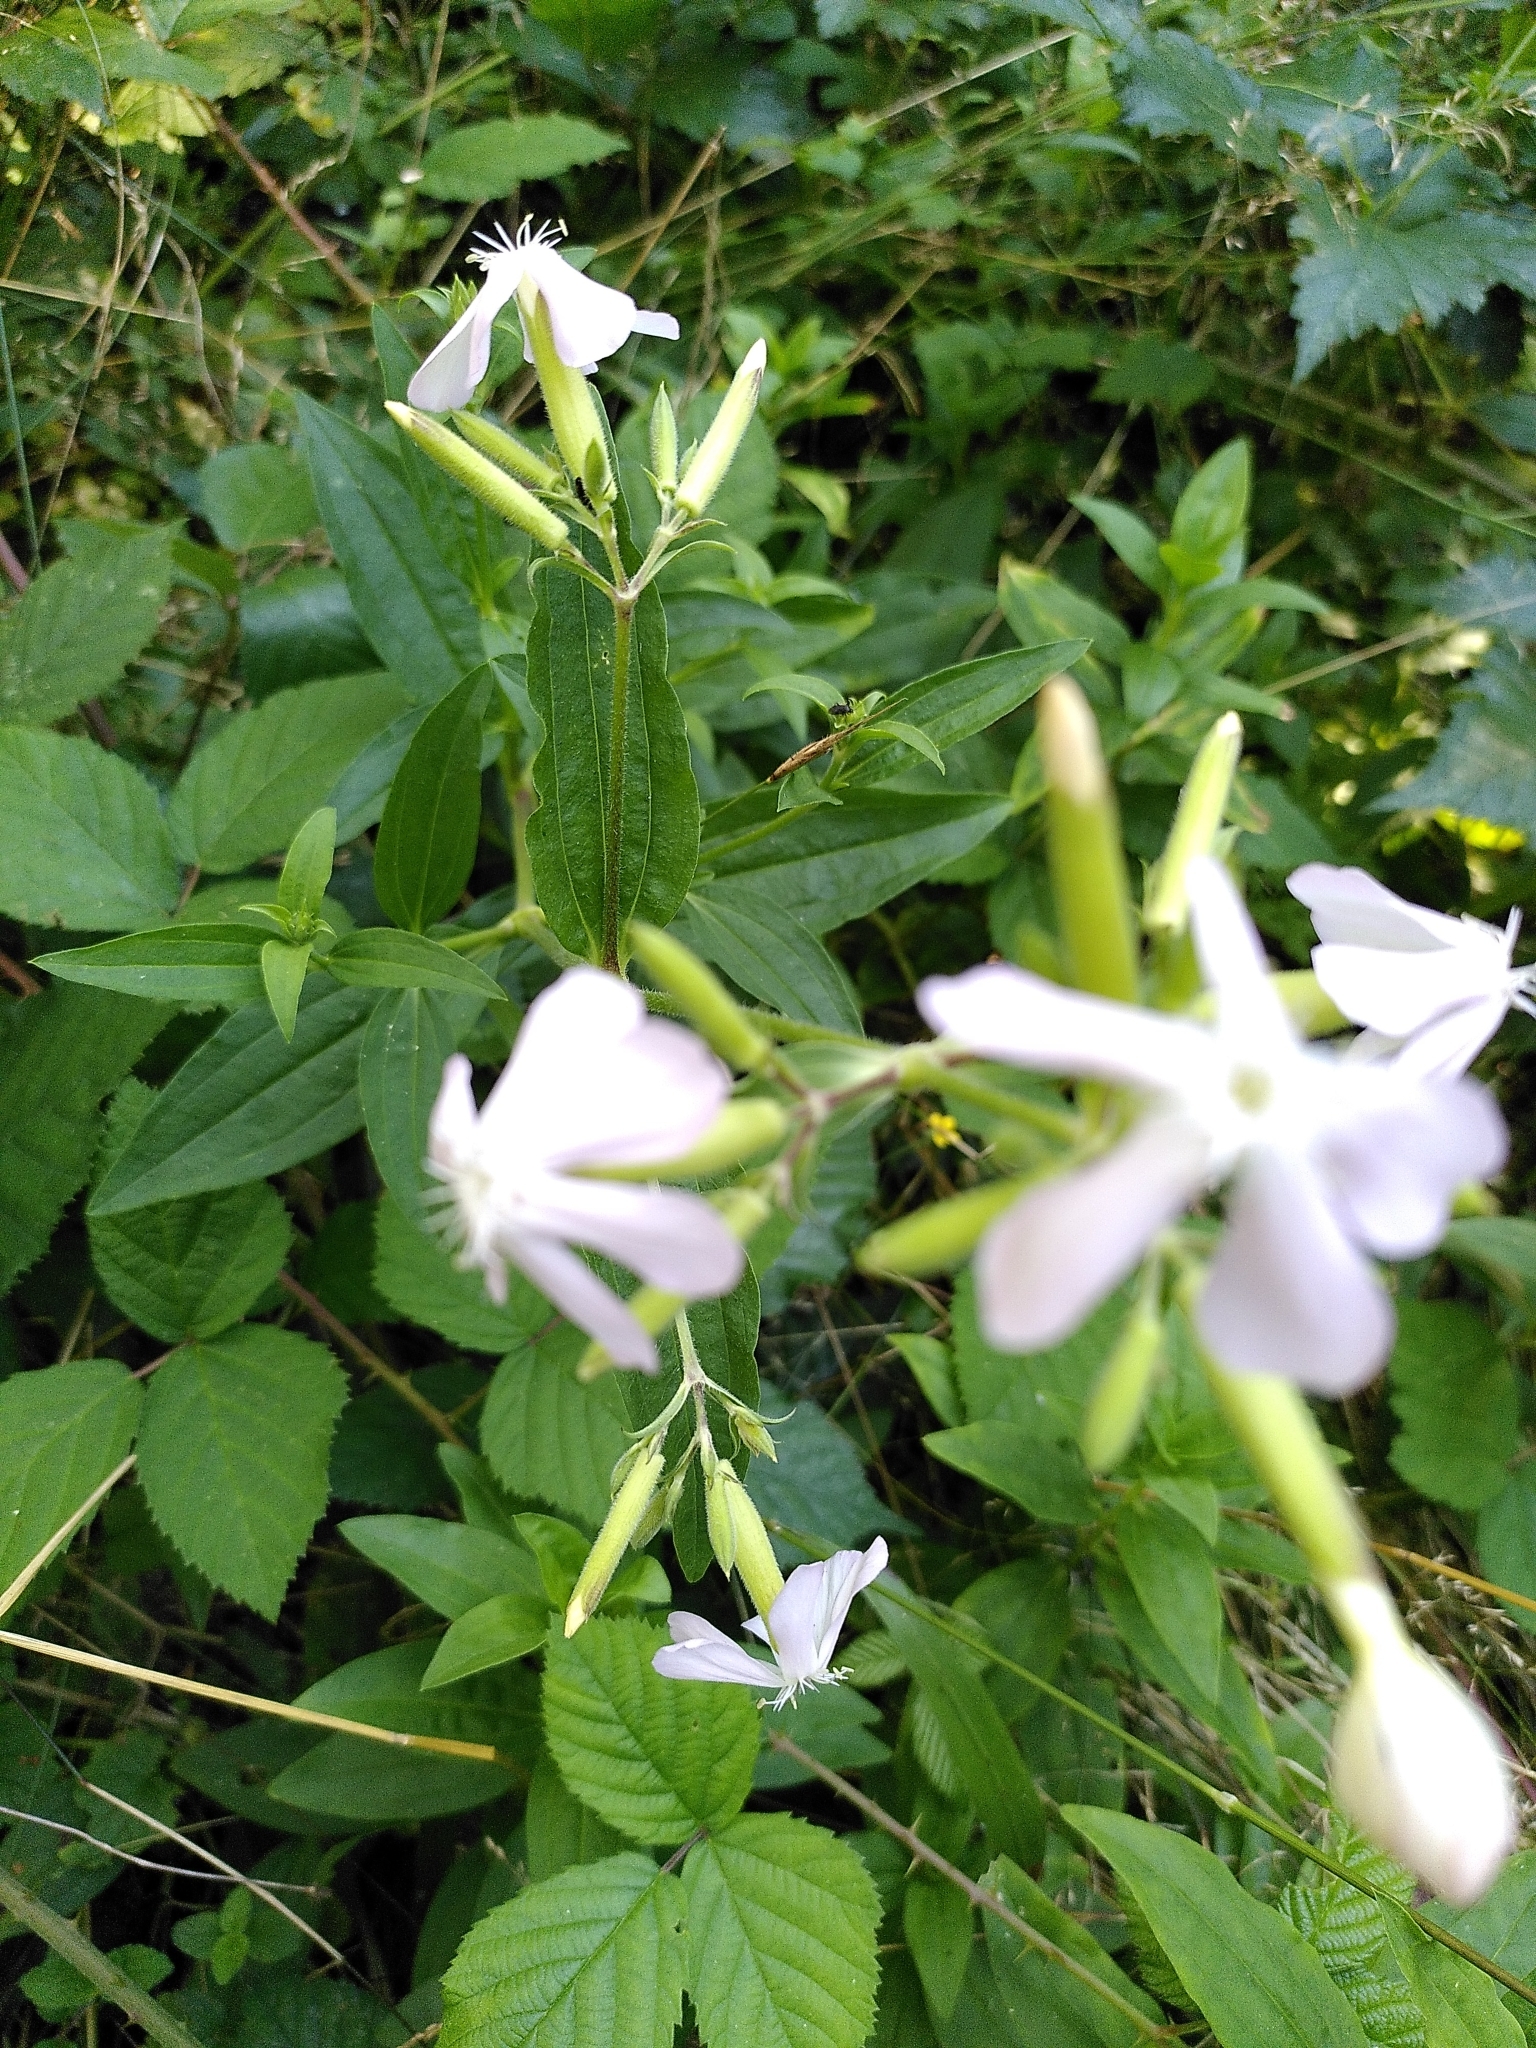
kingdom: Plantae
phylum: Tracheophyta
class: Magnoliopsida
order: Caryophyllales
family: Caryophyllaceae
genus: Saponaria
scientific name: Saponaria officinalis
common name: Soapwort
